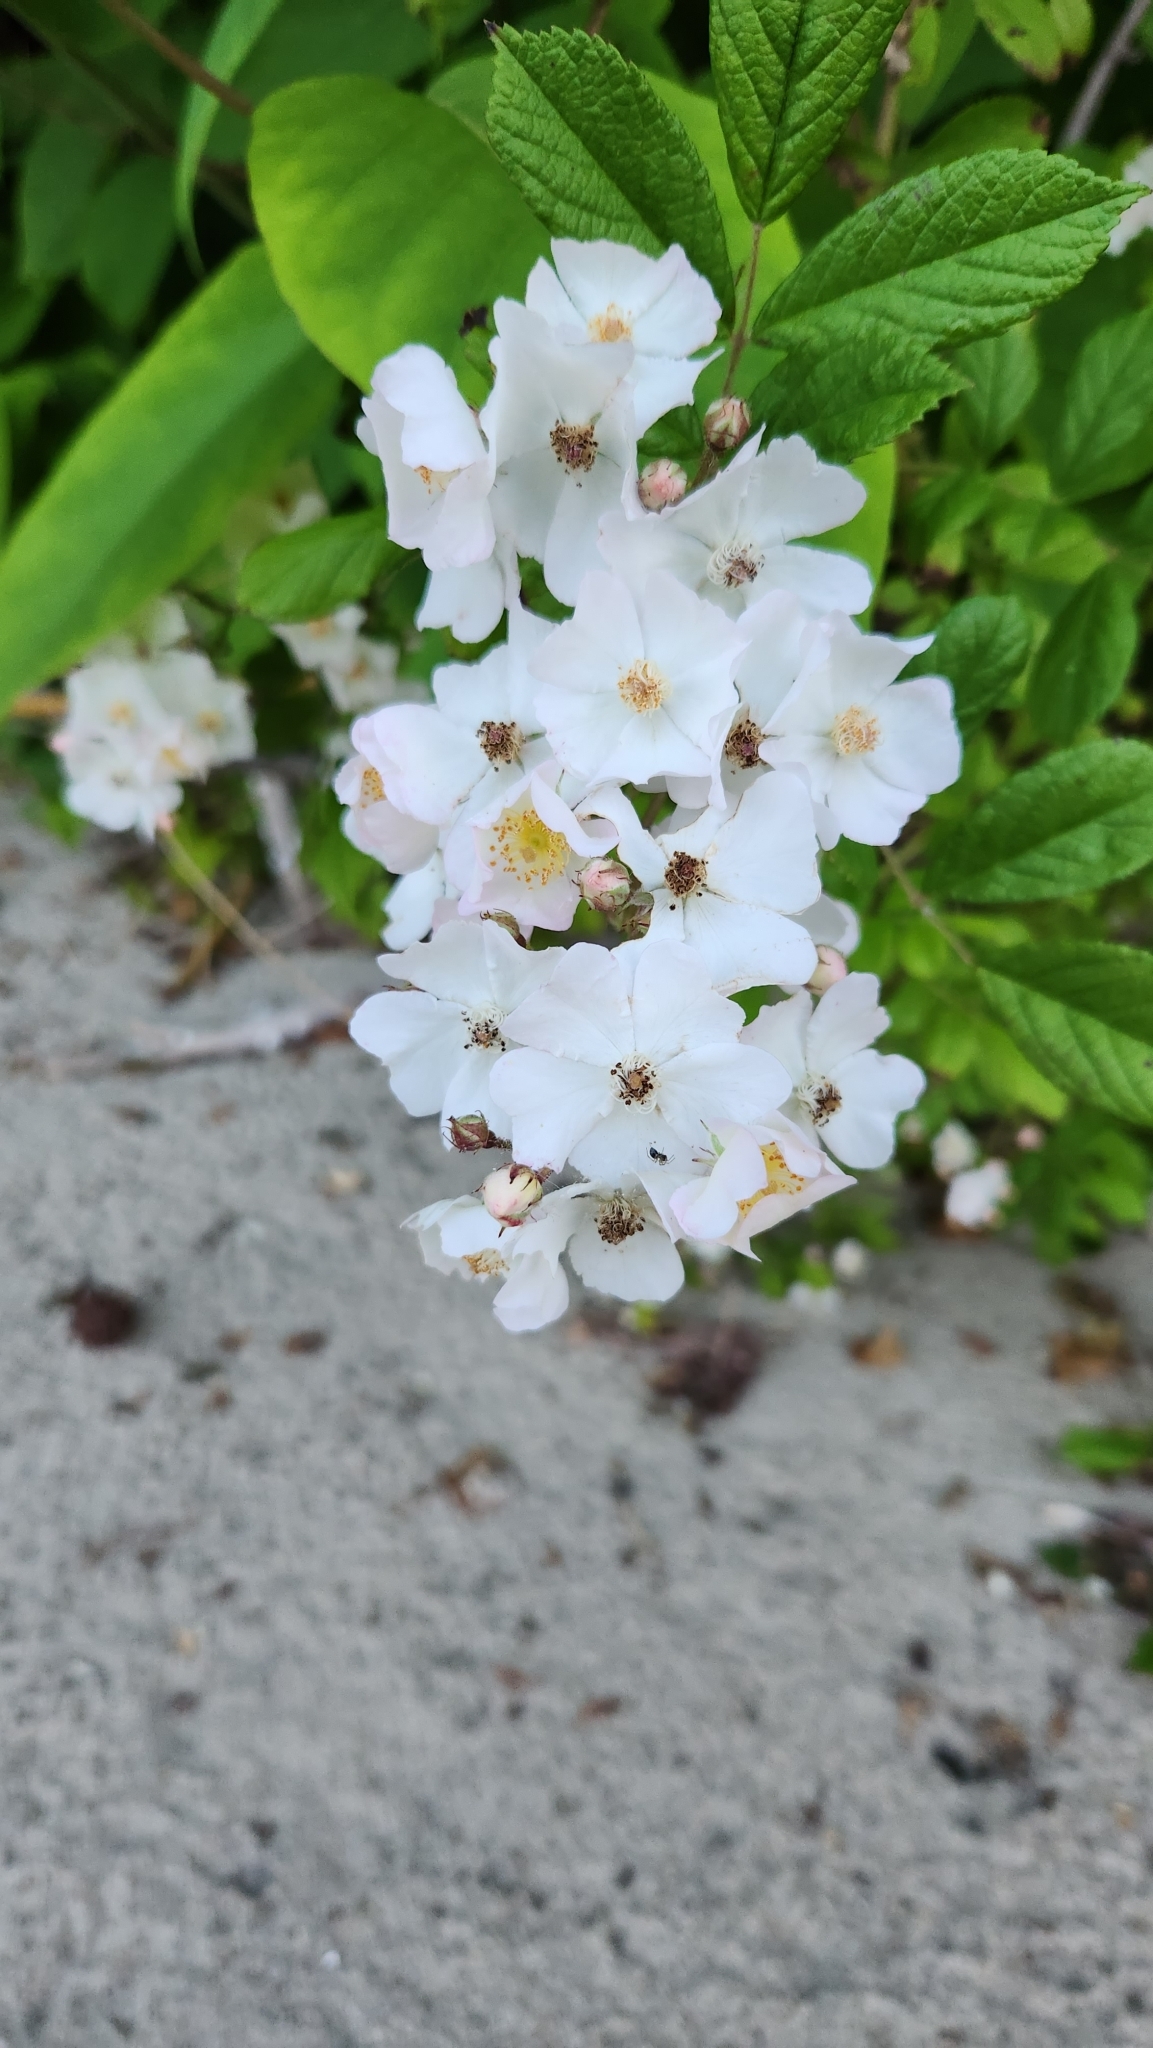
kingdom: Plantae
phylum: Tracheophyta
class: Magnoliopsida
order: Rosales
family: Rosaceae
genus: Rosa
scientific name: Rosa multiflora
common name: Multiflora rose
